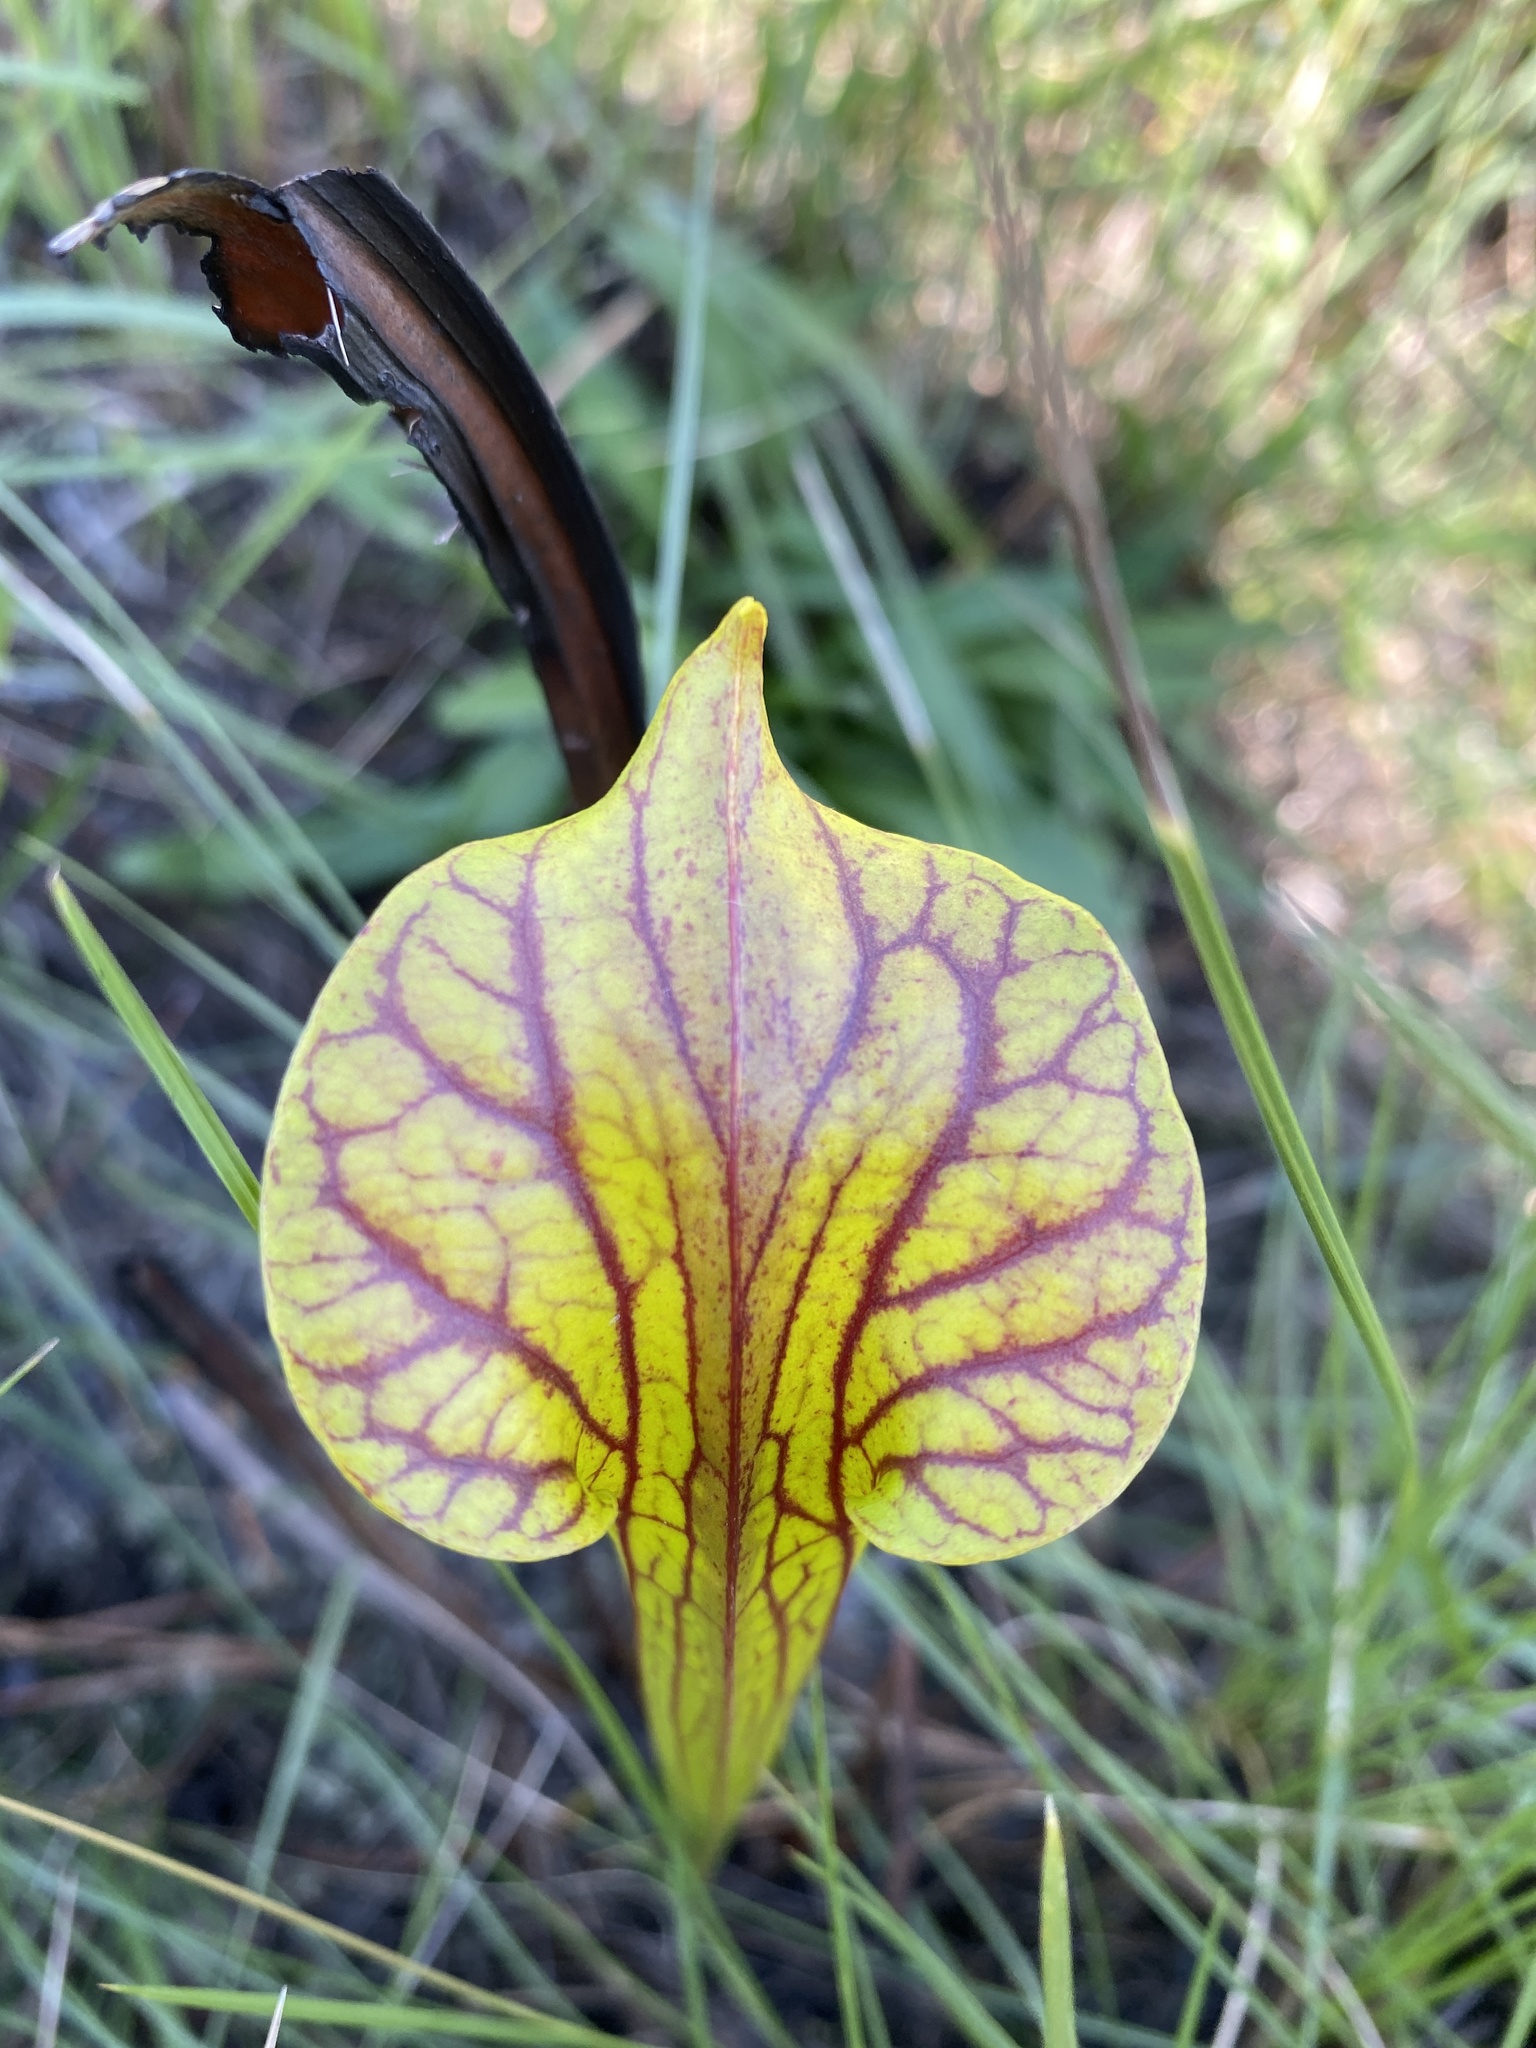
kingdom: Plantae
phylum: Tracheophyta
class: Magnoliopsida
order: Ericales
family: Sarraceniaceae
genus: Sarracenia
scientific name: Sarracenia flava
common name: Trumpets
